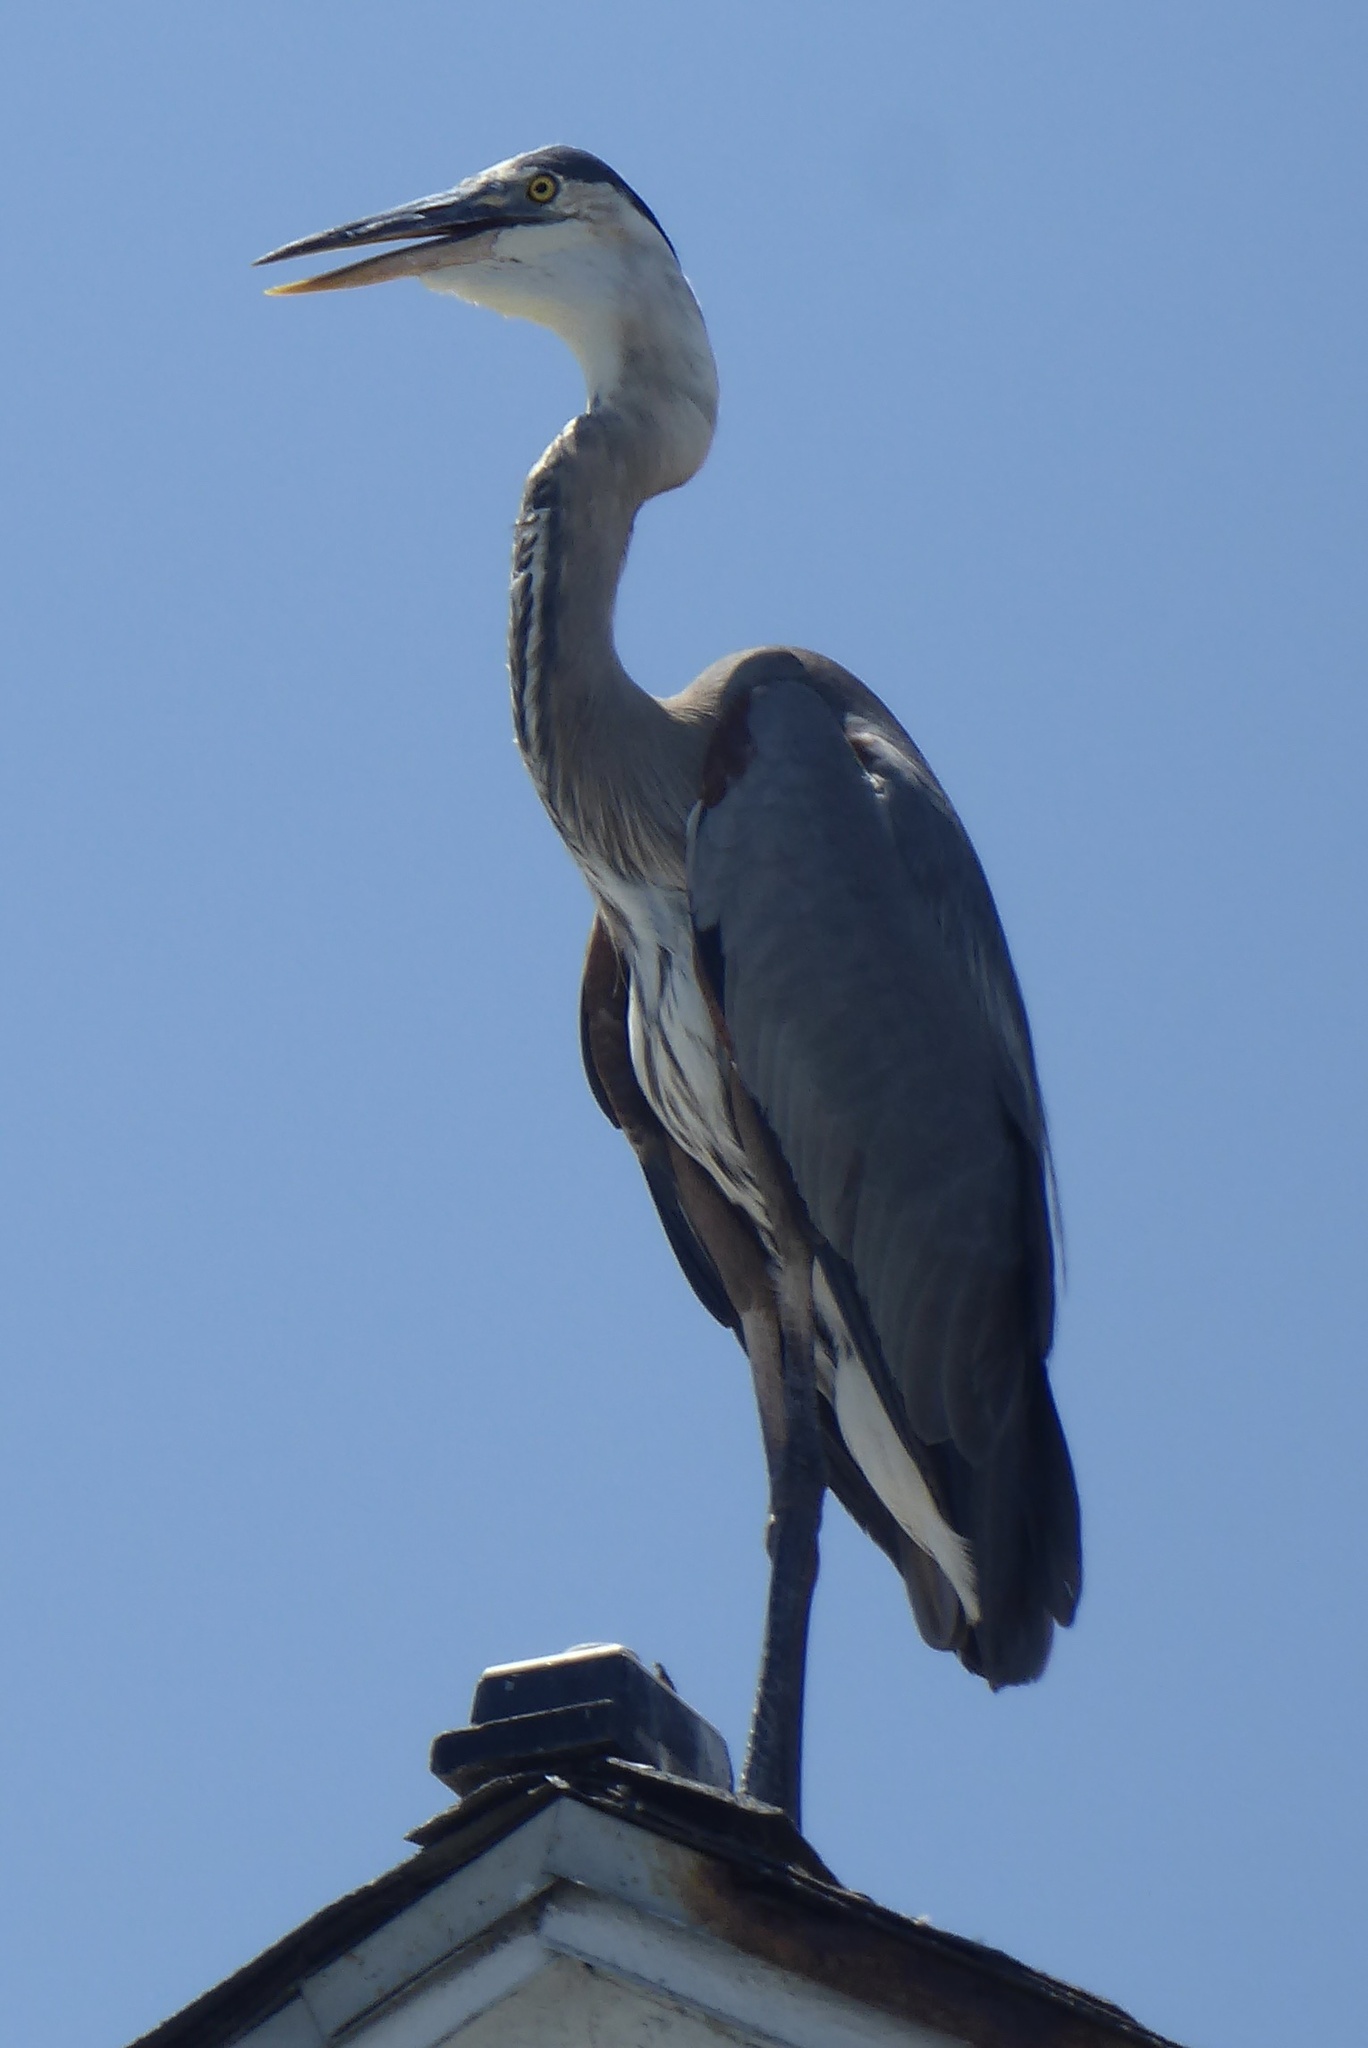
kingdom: Animalia
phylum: Chordata
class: Aves
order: Pelecaniformes
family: Ardeidae
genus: Ardea
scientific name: Ardea herodias
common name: Great blue heron
